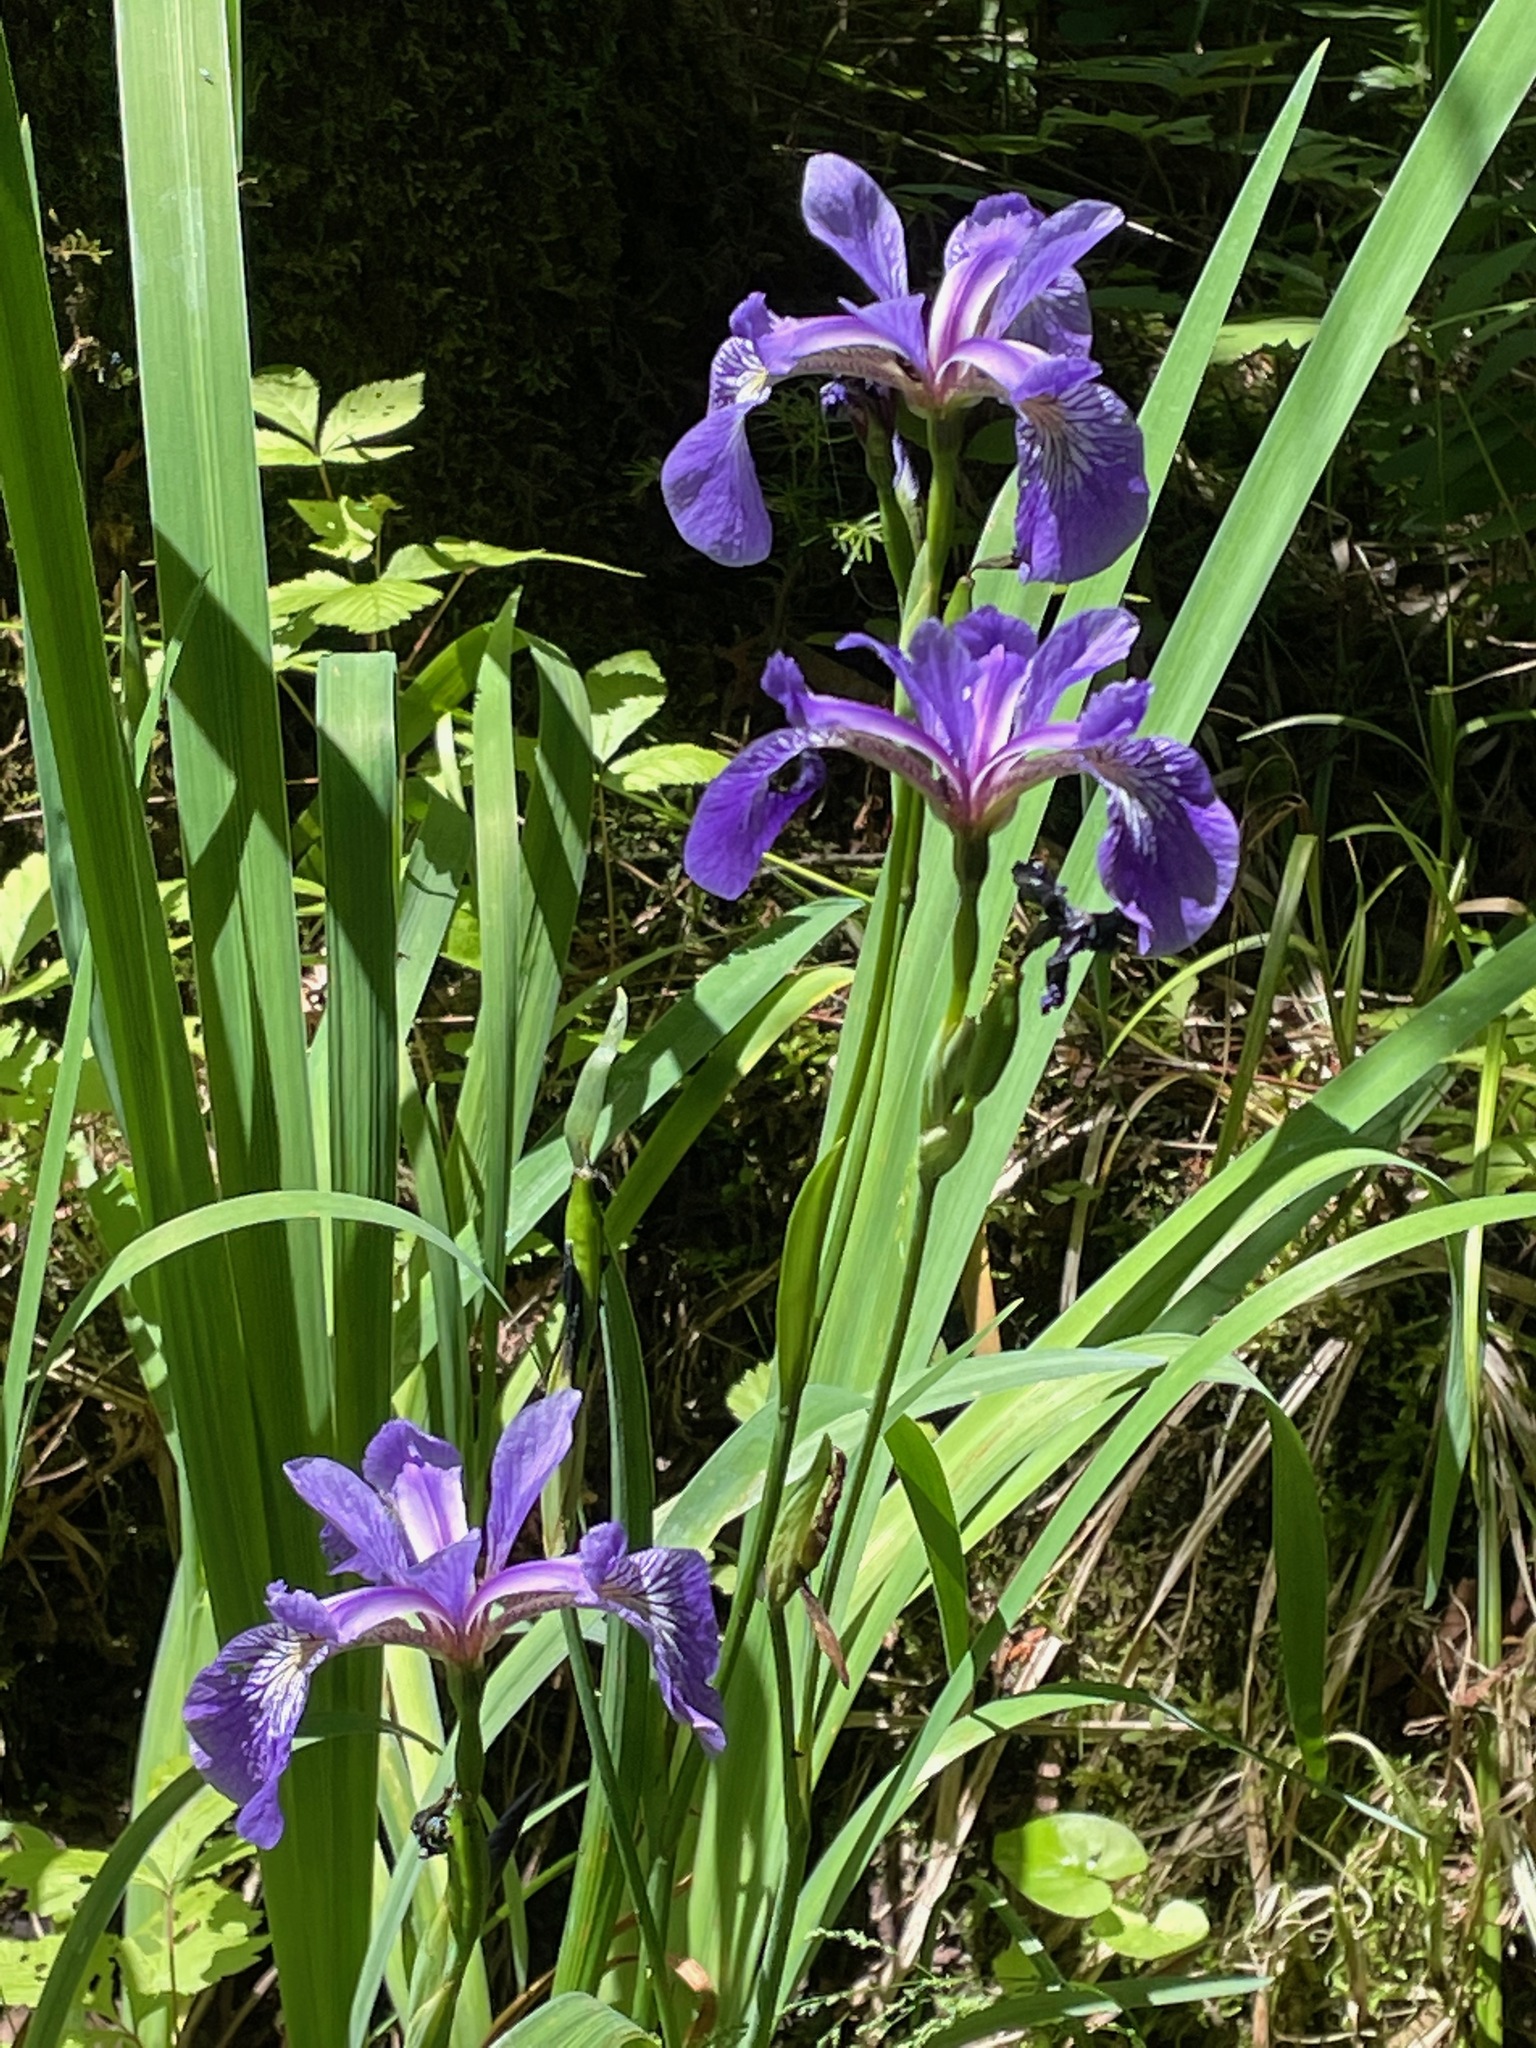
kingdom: Plantae
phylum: Tracheophyta
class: Liliopsida
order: Asparagales
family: Iridaceae
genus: Iris
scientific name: Iris versicolor
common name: Purple iris
